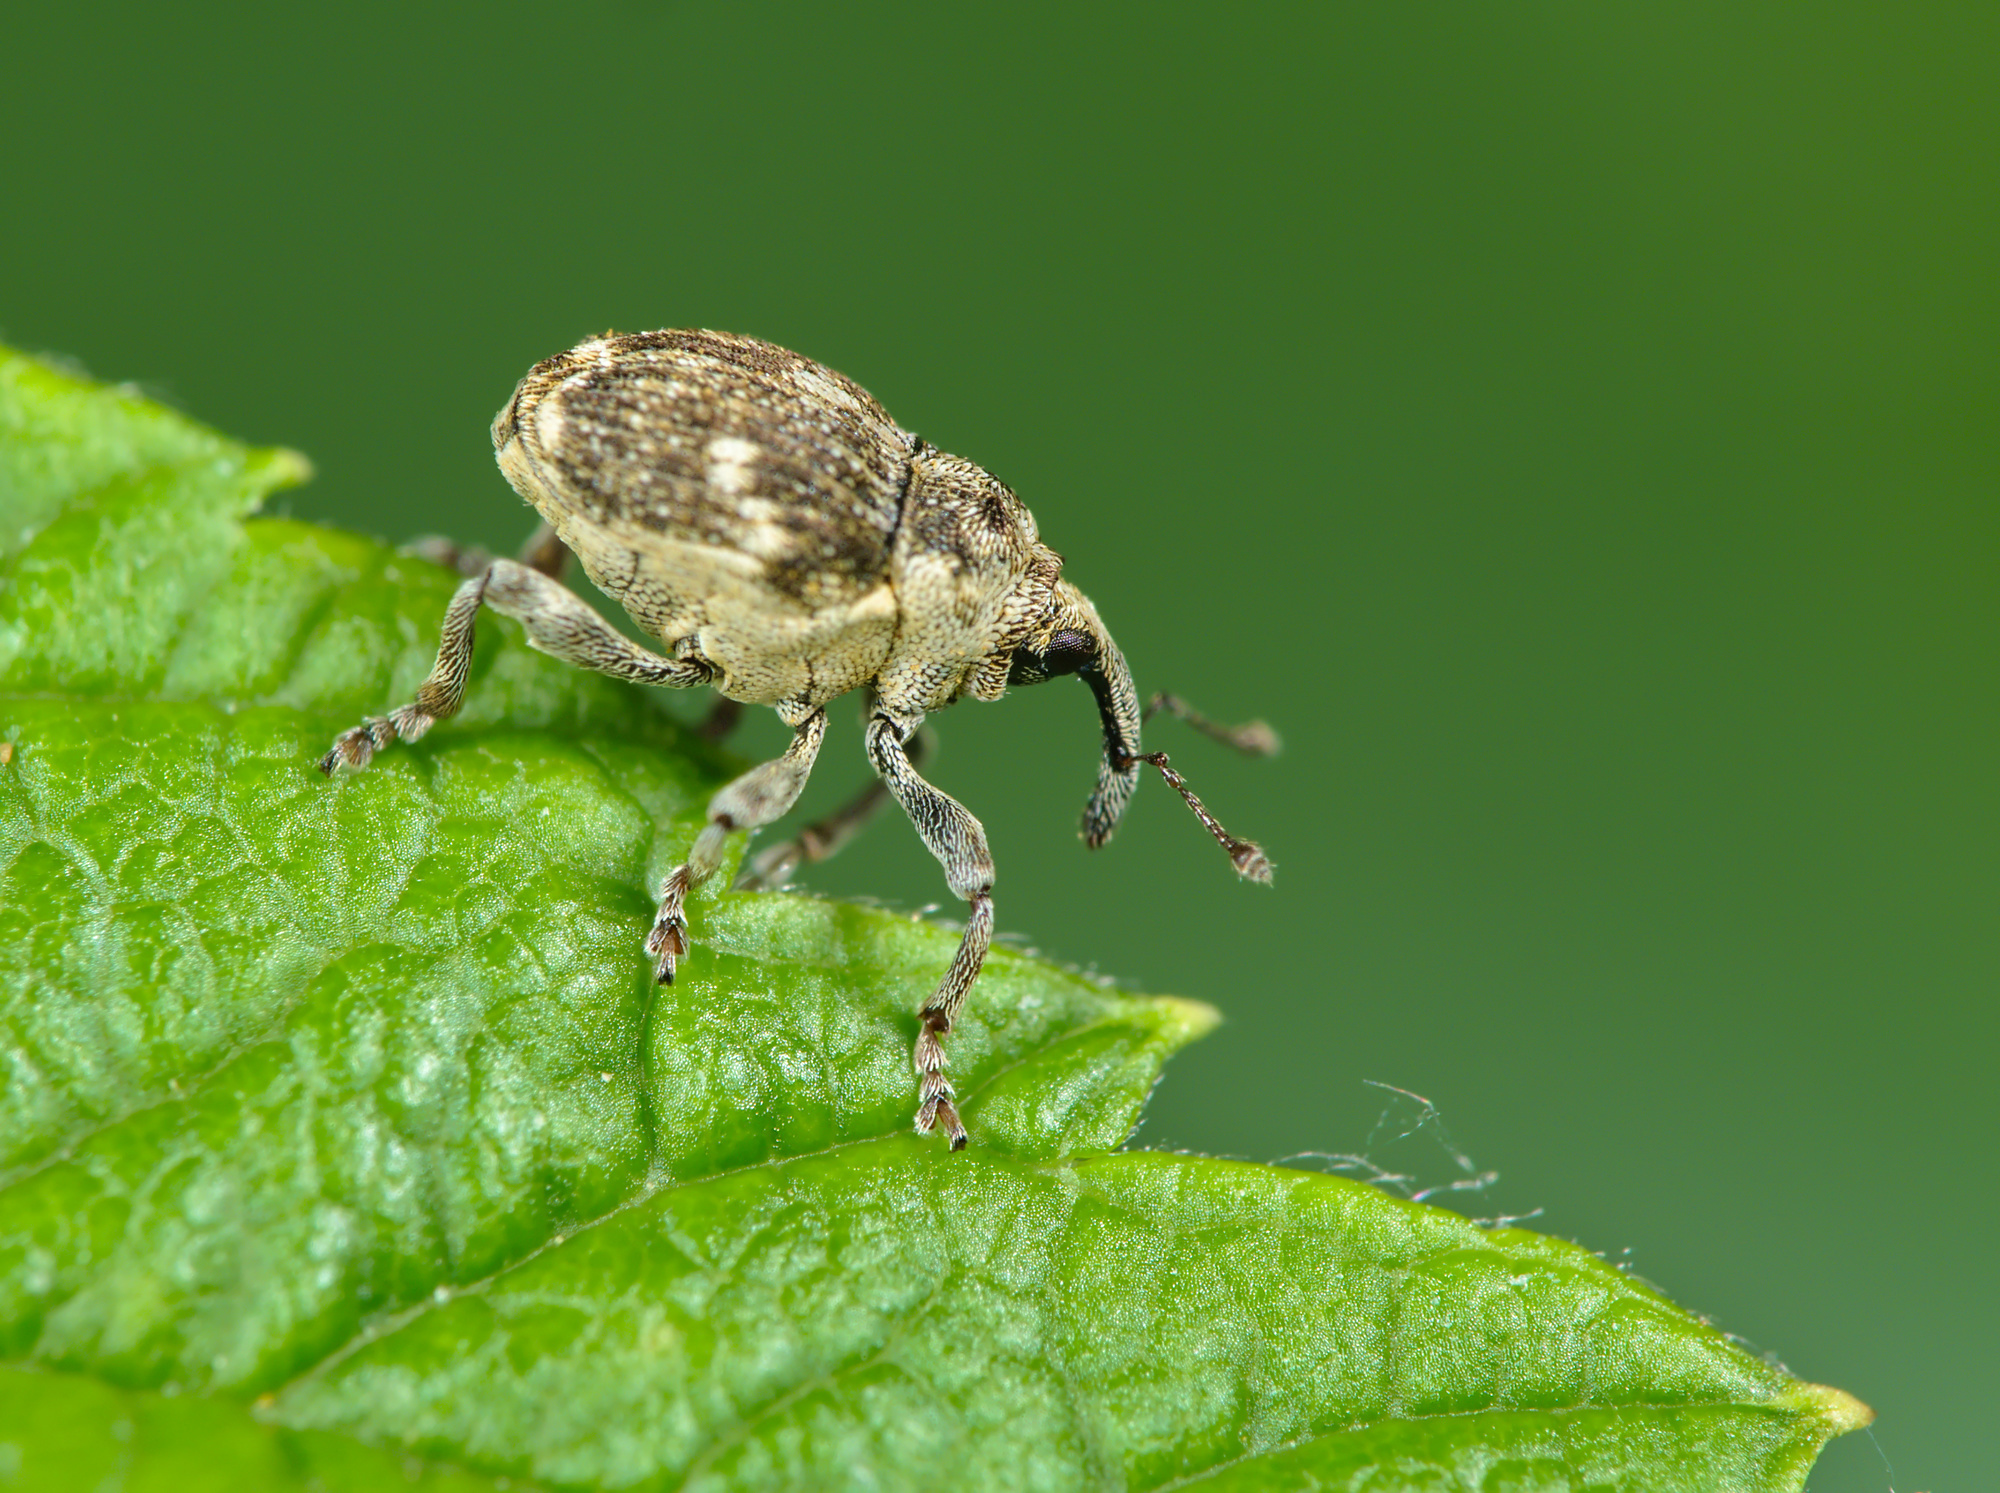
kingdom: Animalia
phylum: Arthropoda
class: Insecta
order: Coleoptera
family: Curculionidae
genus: Nedyus
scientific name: Nedyus quadrimaculatus
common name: Small nettle weevil
